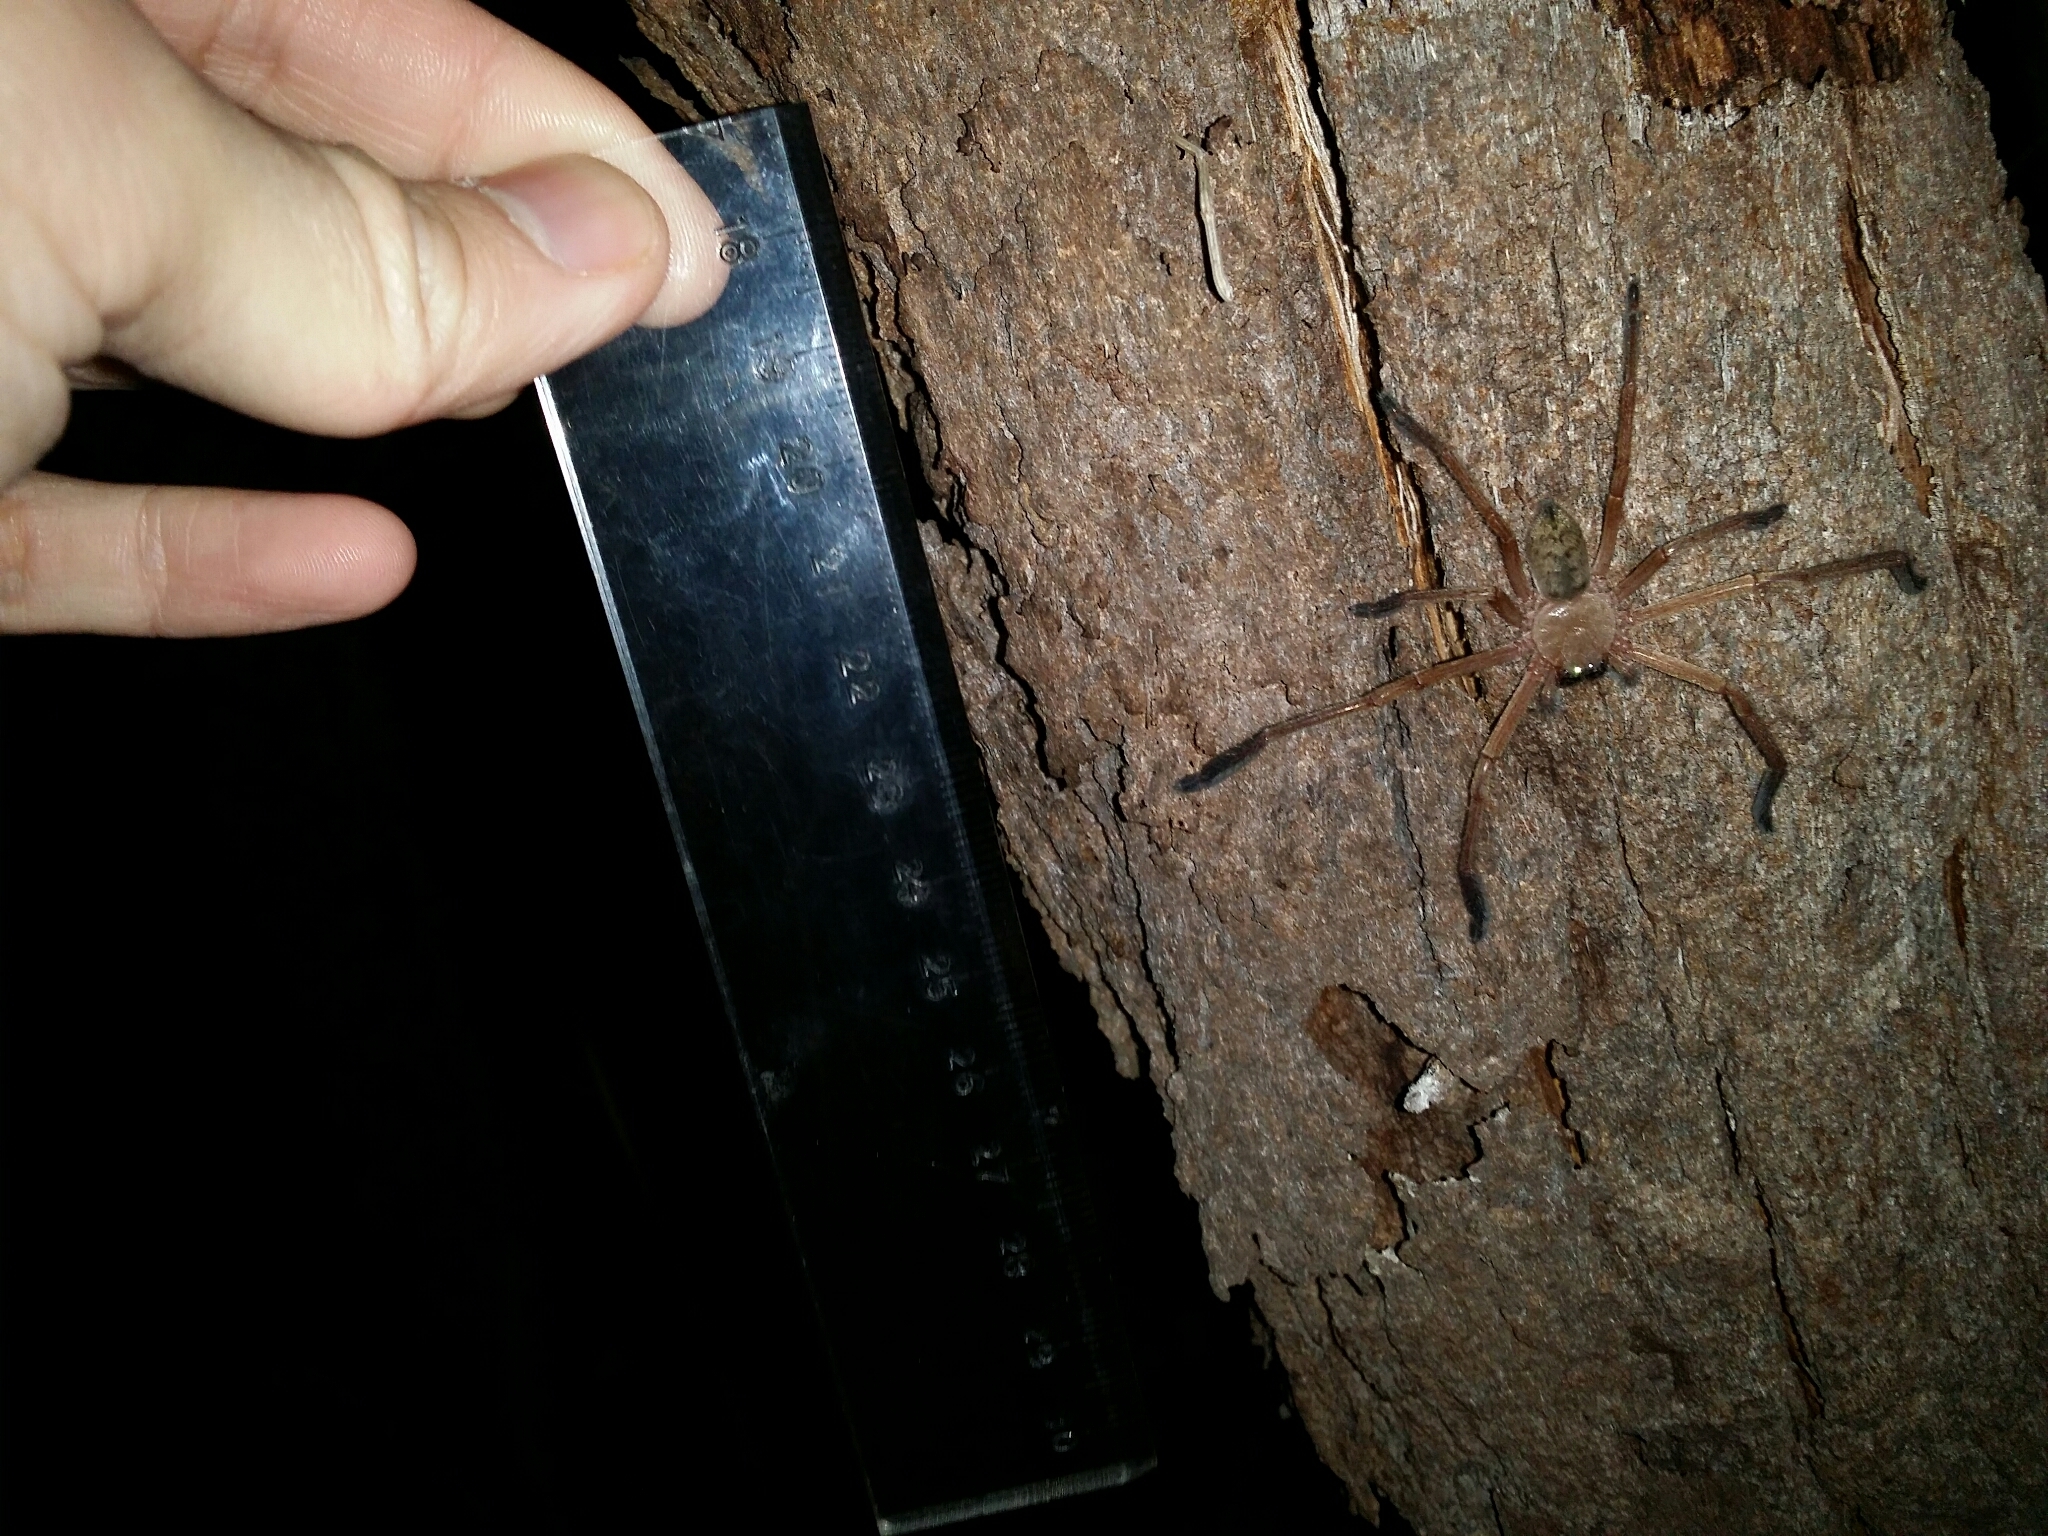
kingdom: Animalia
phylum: Arthropoda
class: Arachnida
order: Araneae
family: Sparassidae
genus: Delena
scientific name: Delena cancerides
